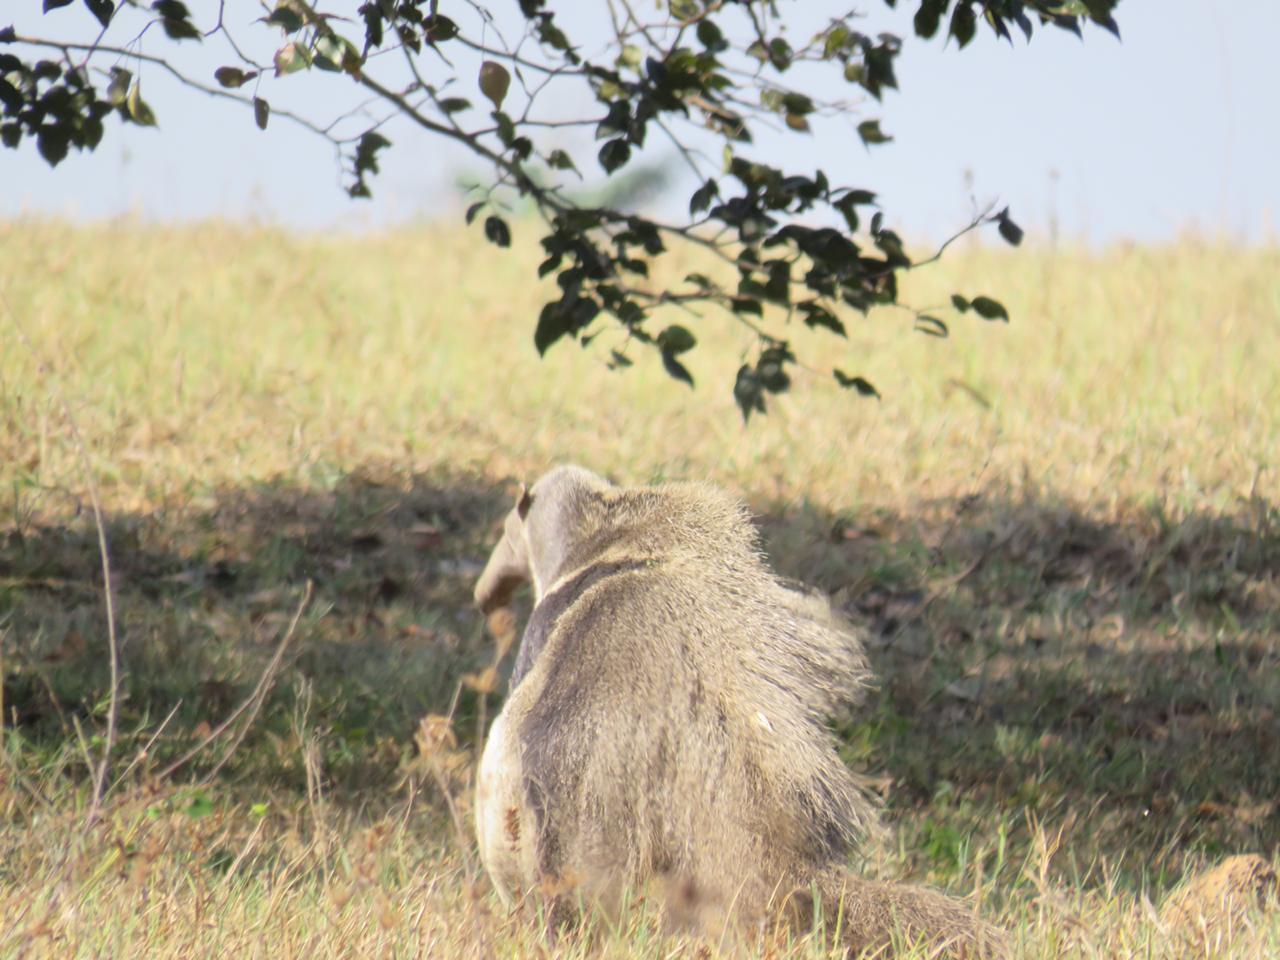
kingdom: Animalia
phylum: Chordata
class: Mammalia
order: Pilosa
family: Myrmecophagidae
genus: Myrmecophaga
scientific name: Myrmecophaga tridactyla
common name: Giant anteater
